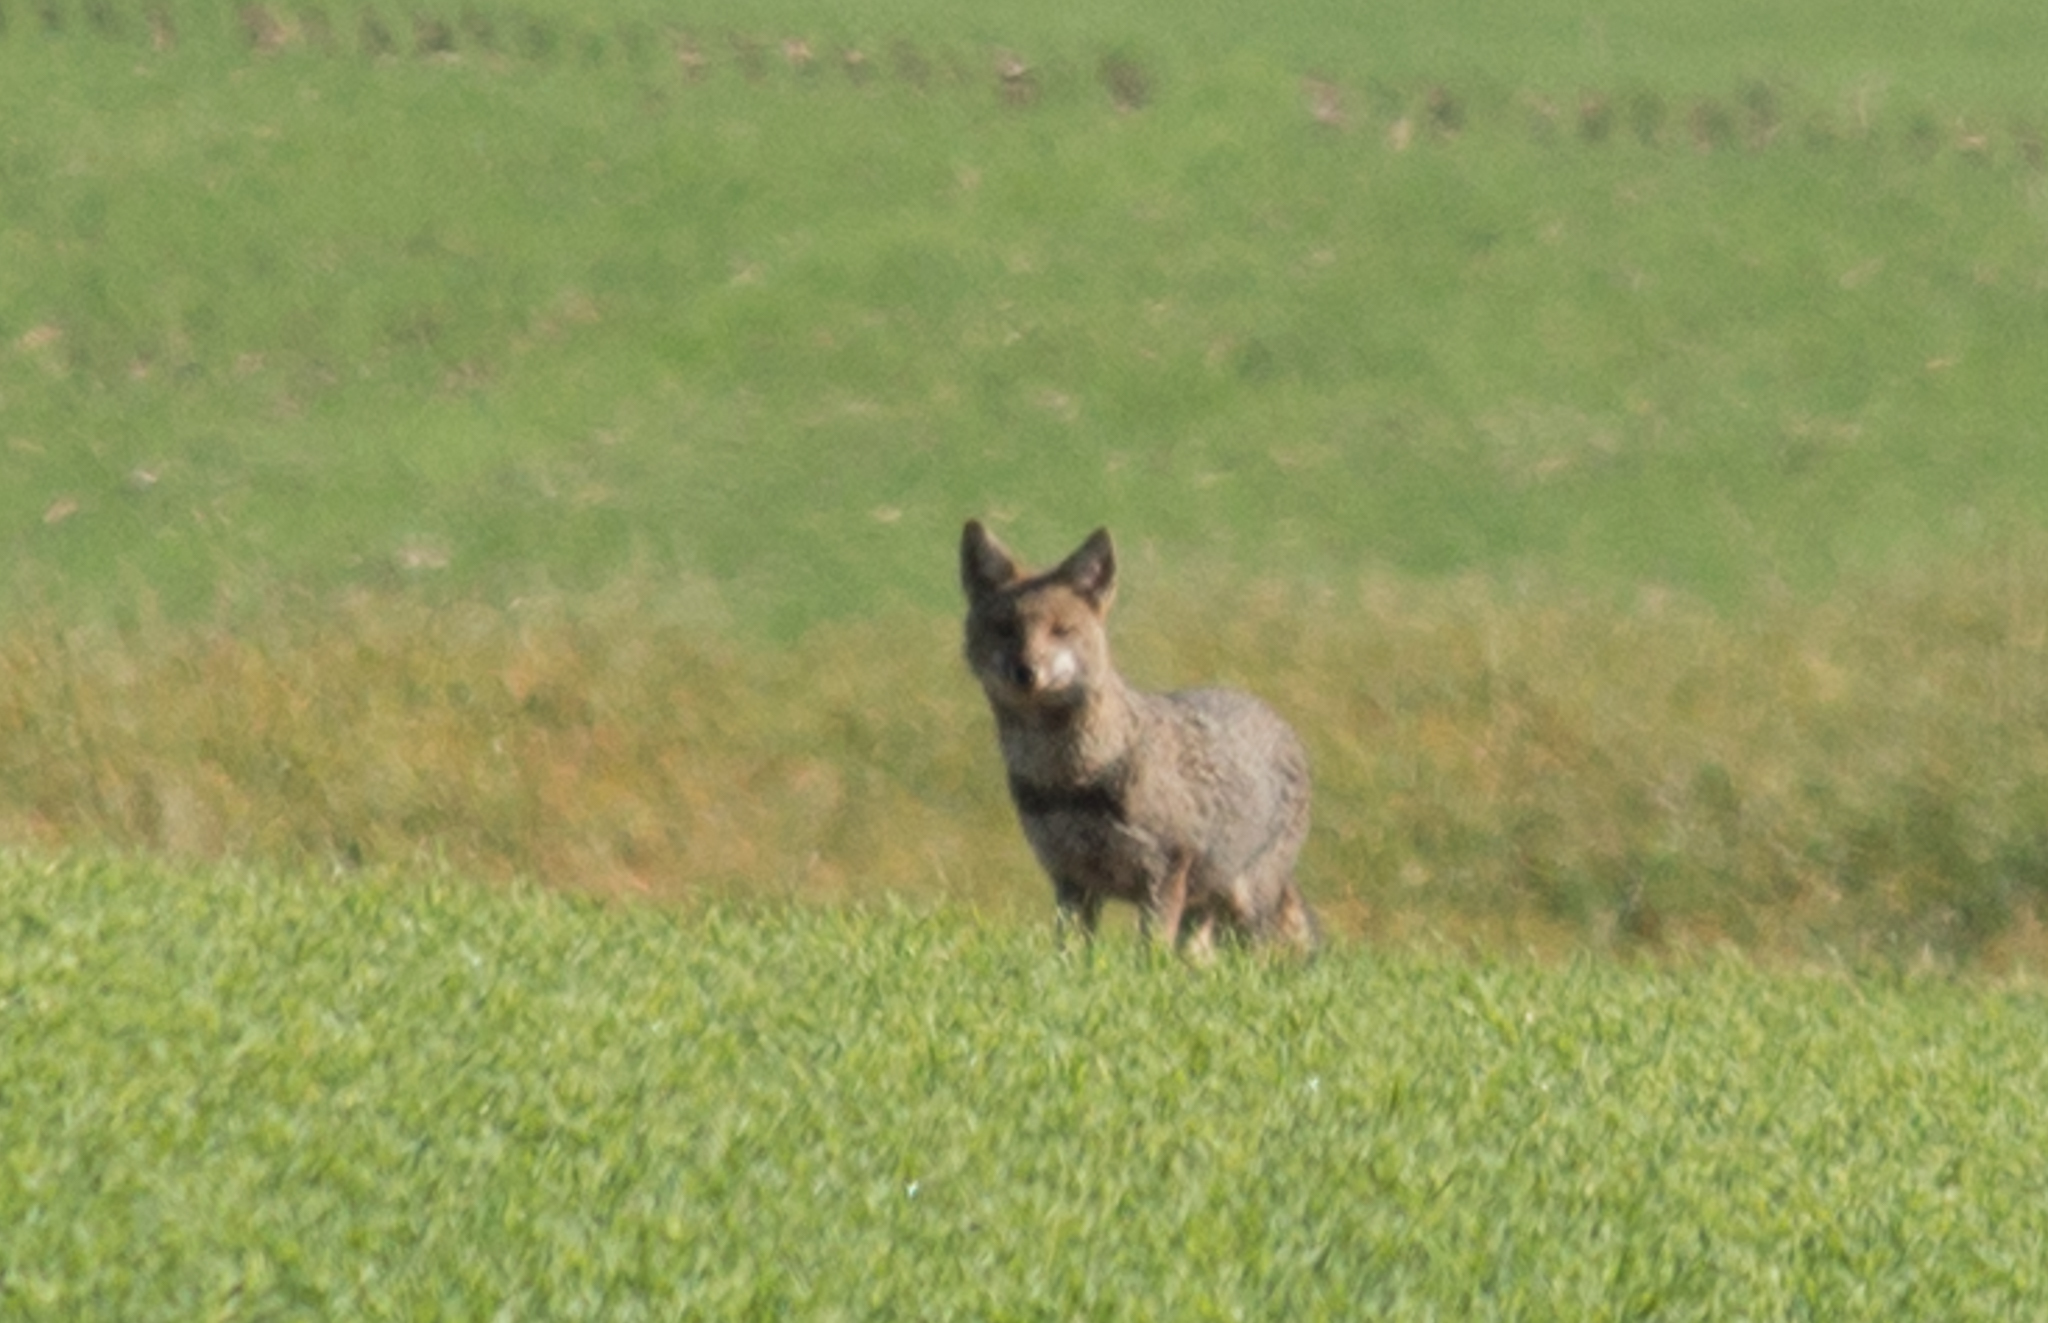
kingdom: Animalia
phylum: Chordata
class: Mammalia
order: Carnivora
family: Canidae
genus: Lycalopex
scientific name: Lycalopex gymnocercus
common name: Pampas fox
